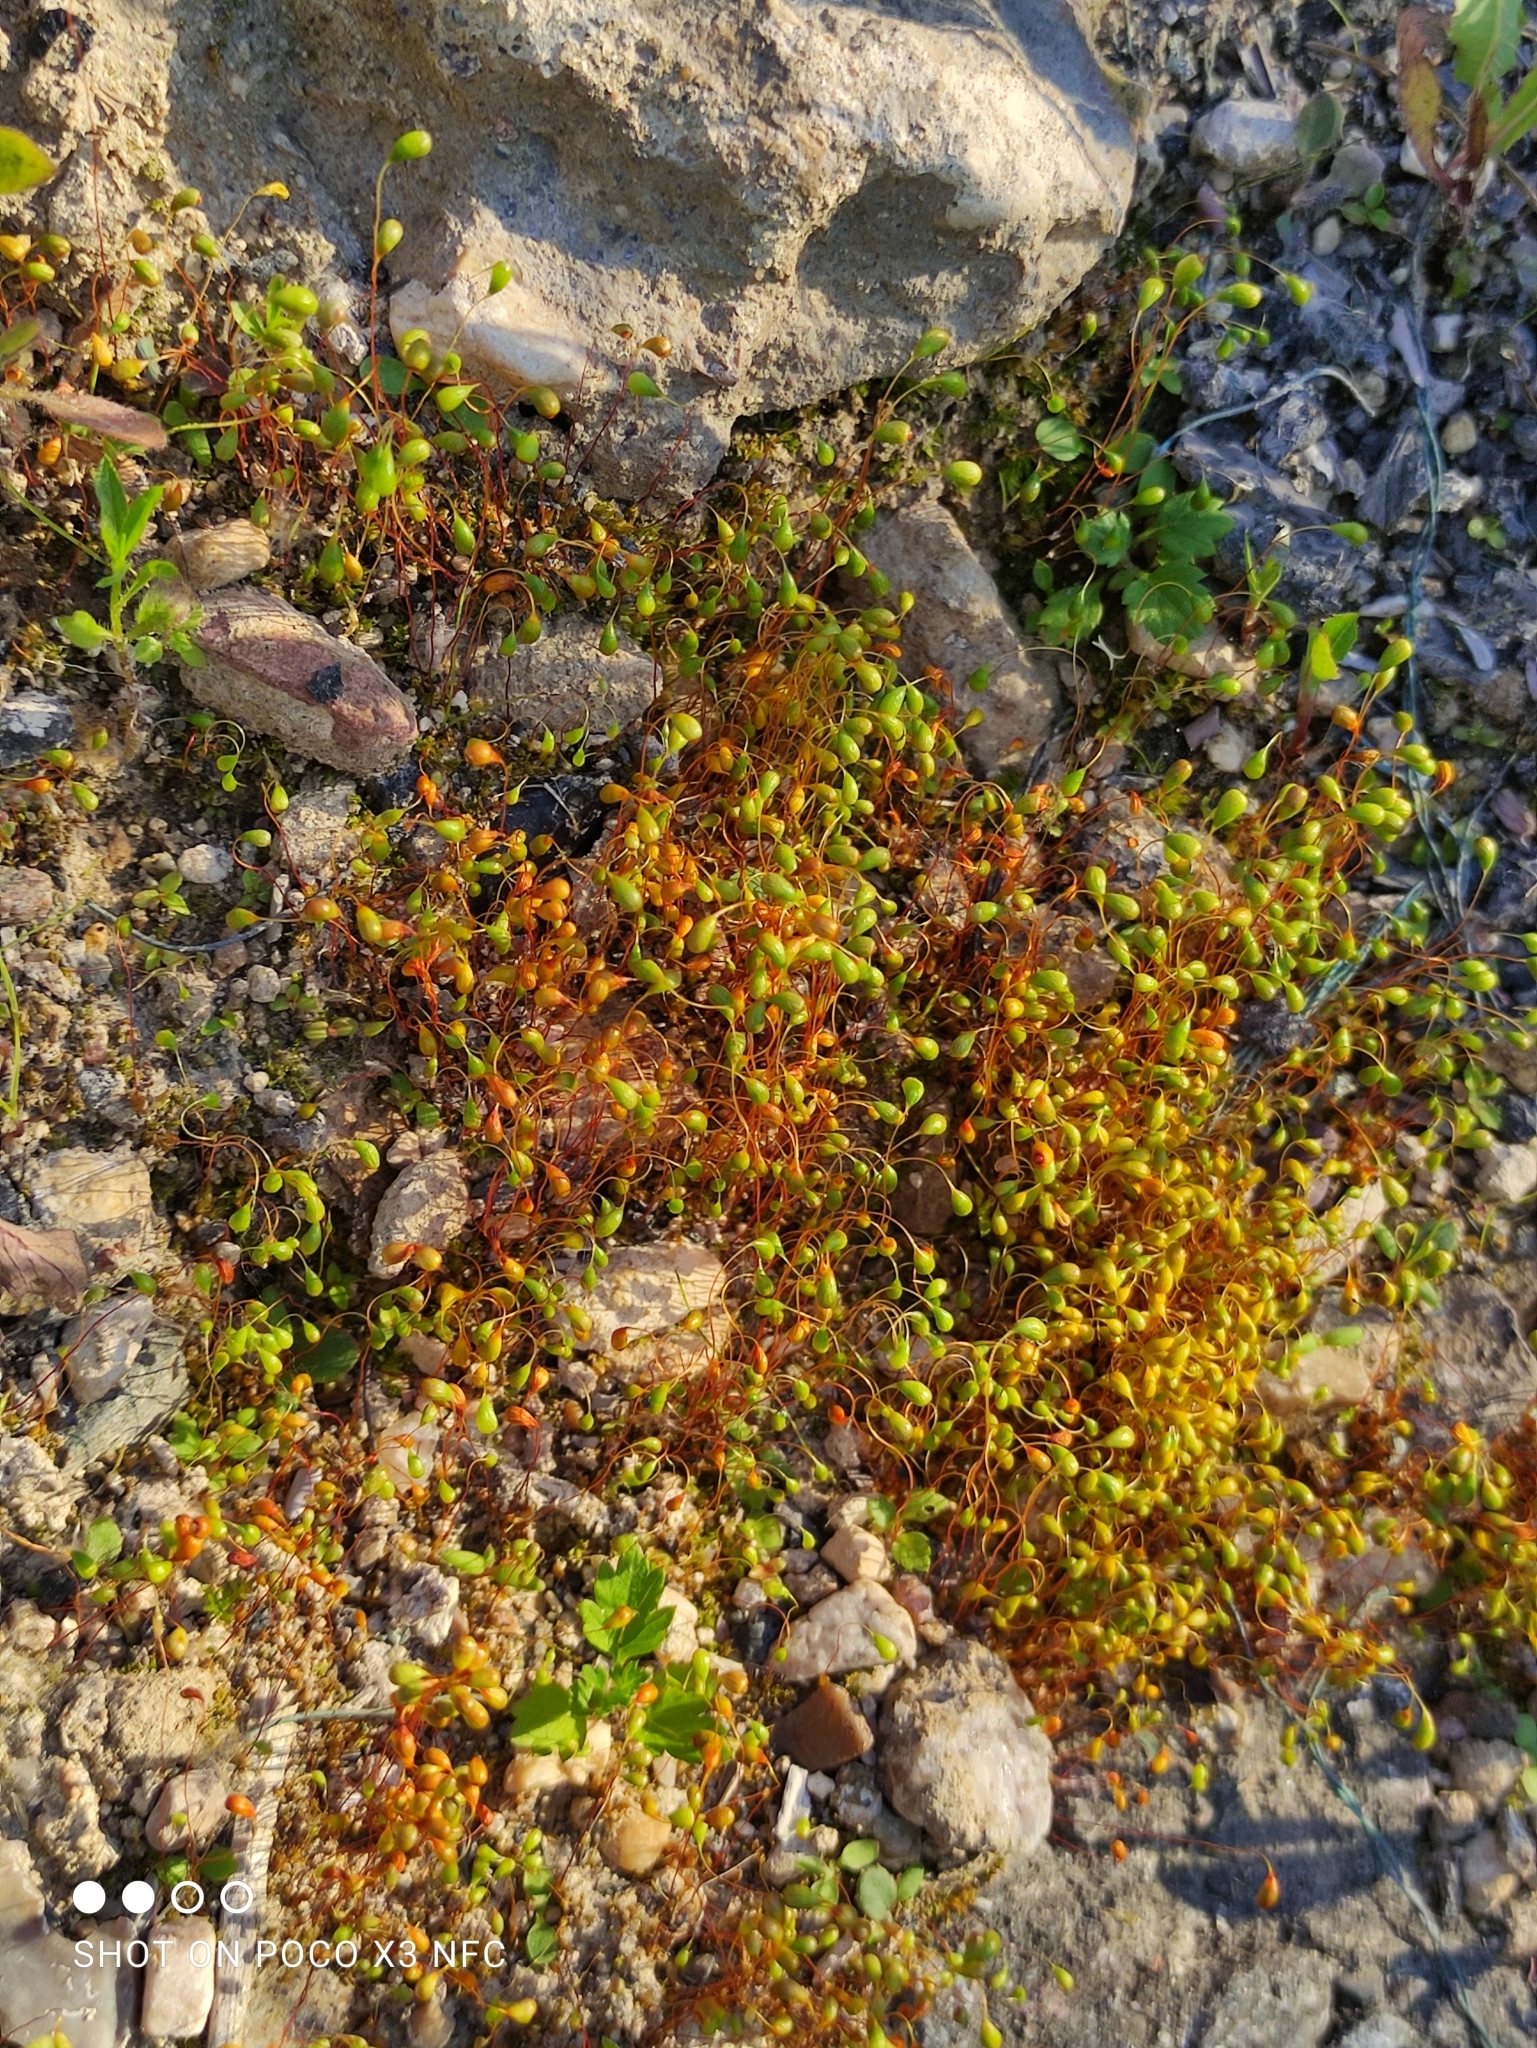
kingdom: Plantae
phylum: Bryophyta
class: Bryopsida
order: Funariales
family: Funariaceae
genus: Funaria
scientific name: Funaria hygrometrica
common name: Common cord moss
